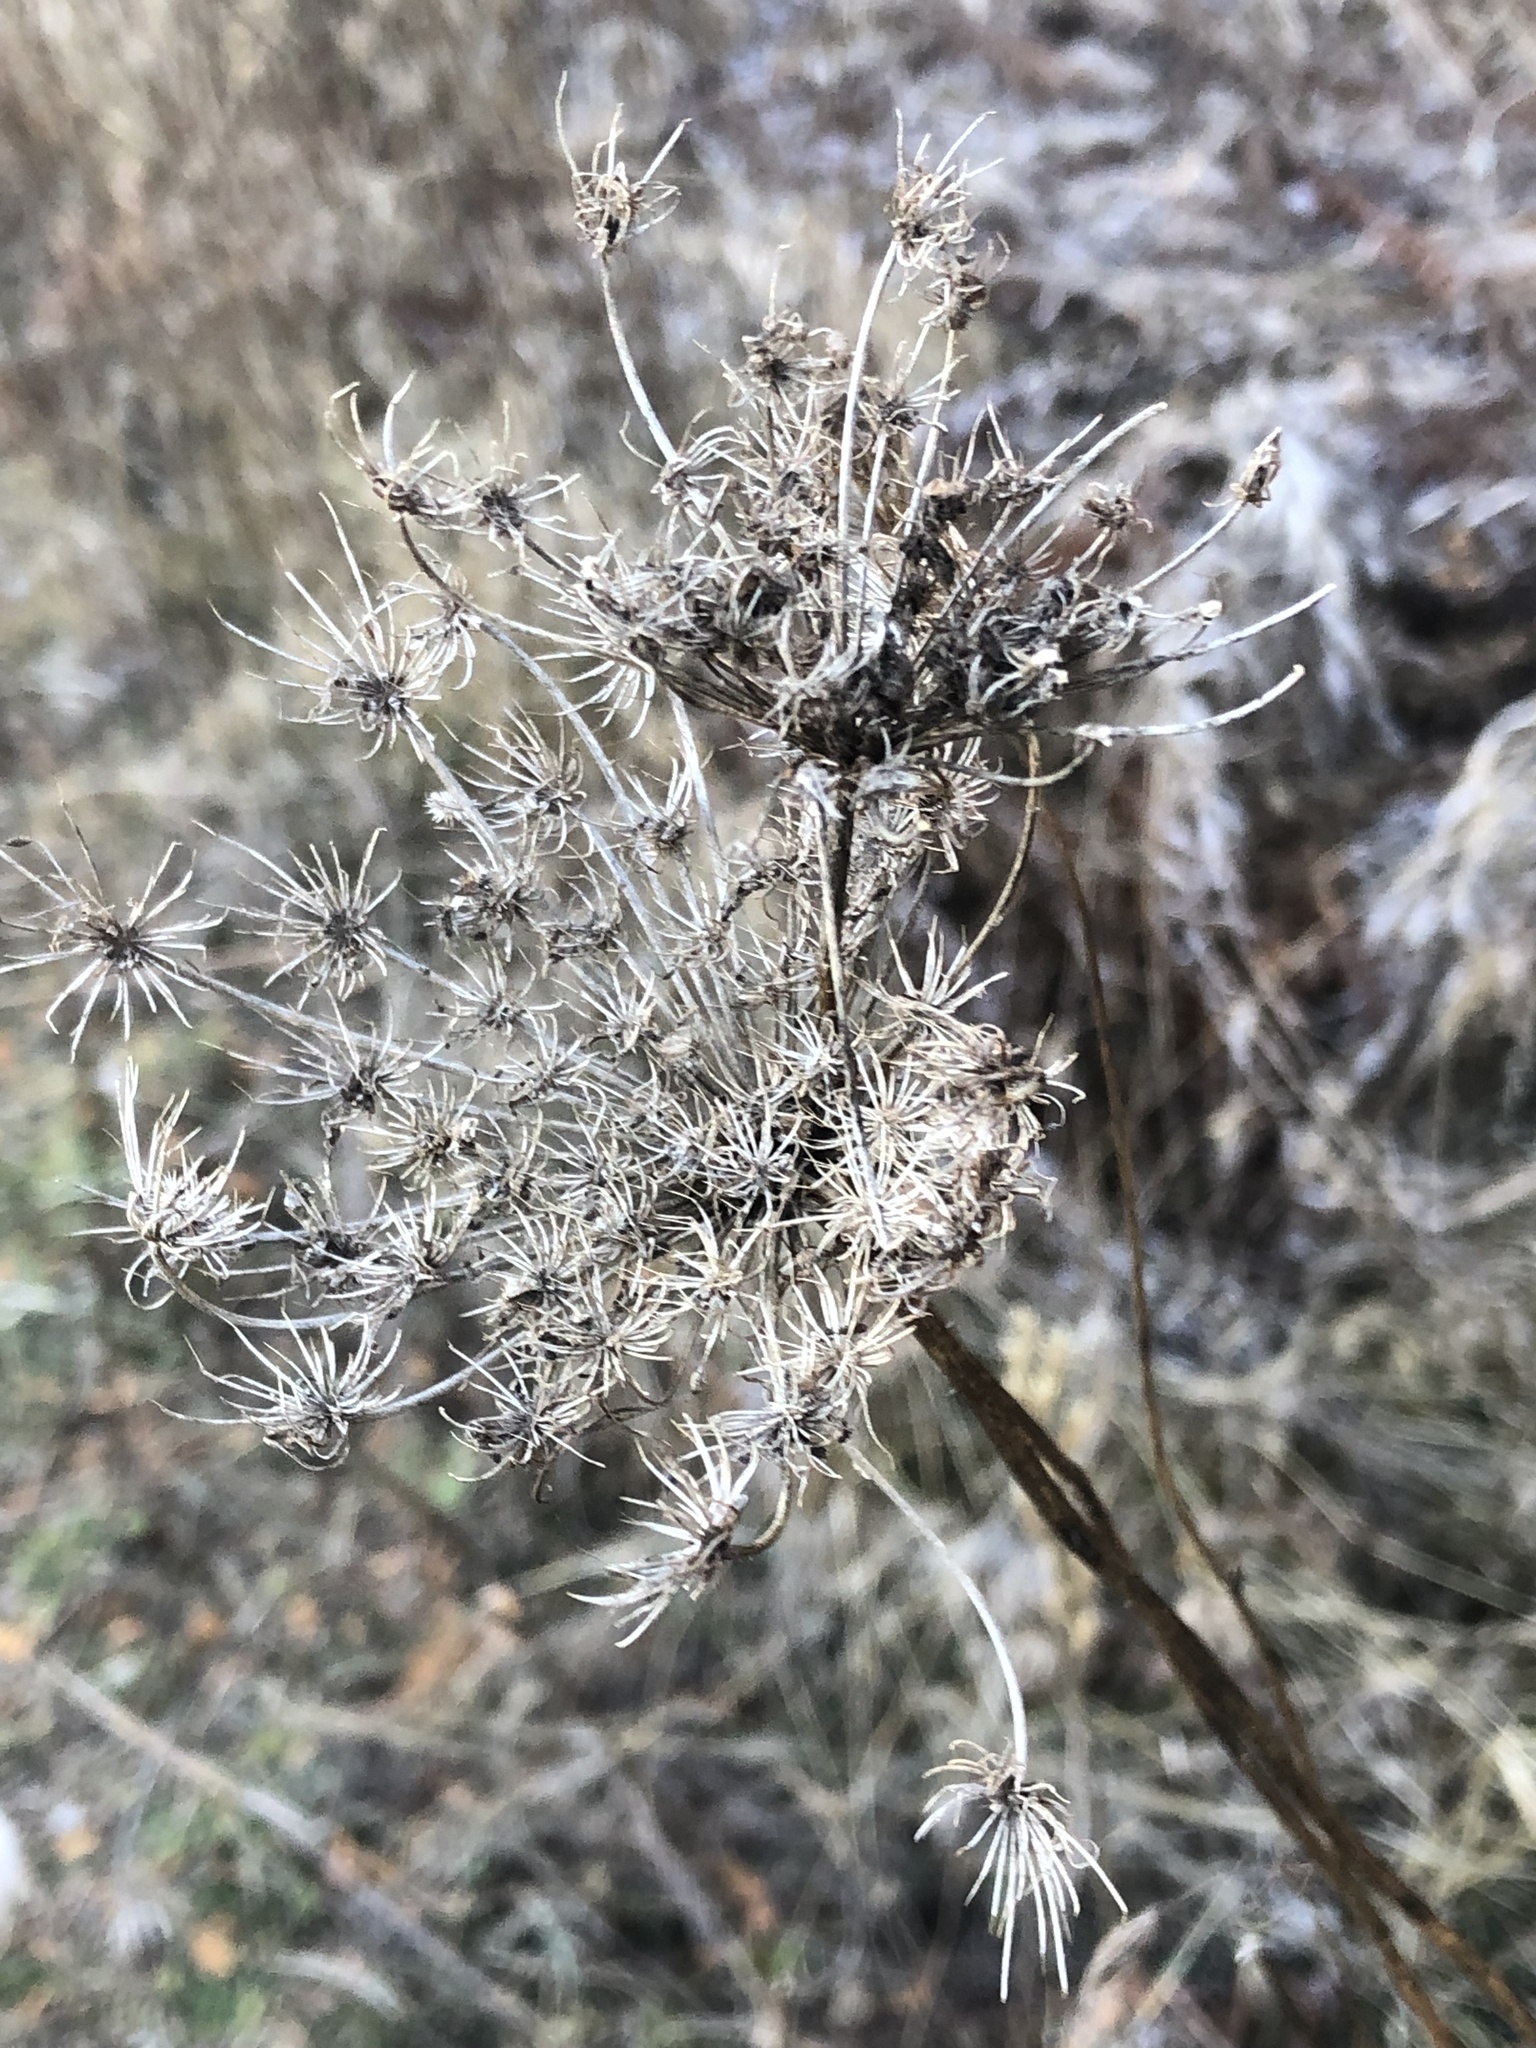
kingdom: Plantae
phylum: Tracheophyta
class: Magnoliopsida
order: Apiales
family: Apiaceae
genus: Daucus
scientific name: Daucus carota
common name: Wild carrot
